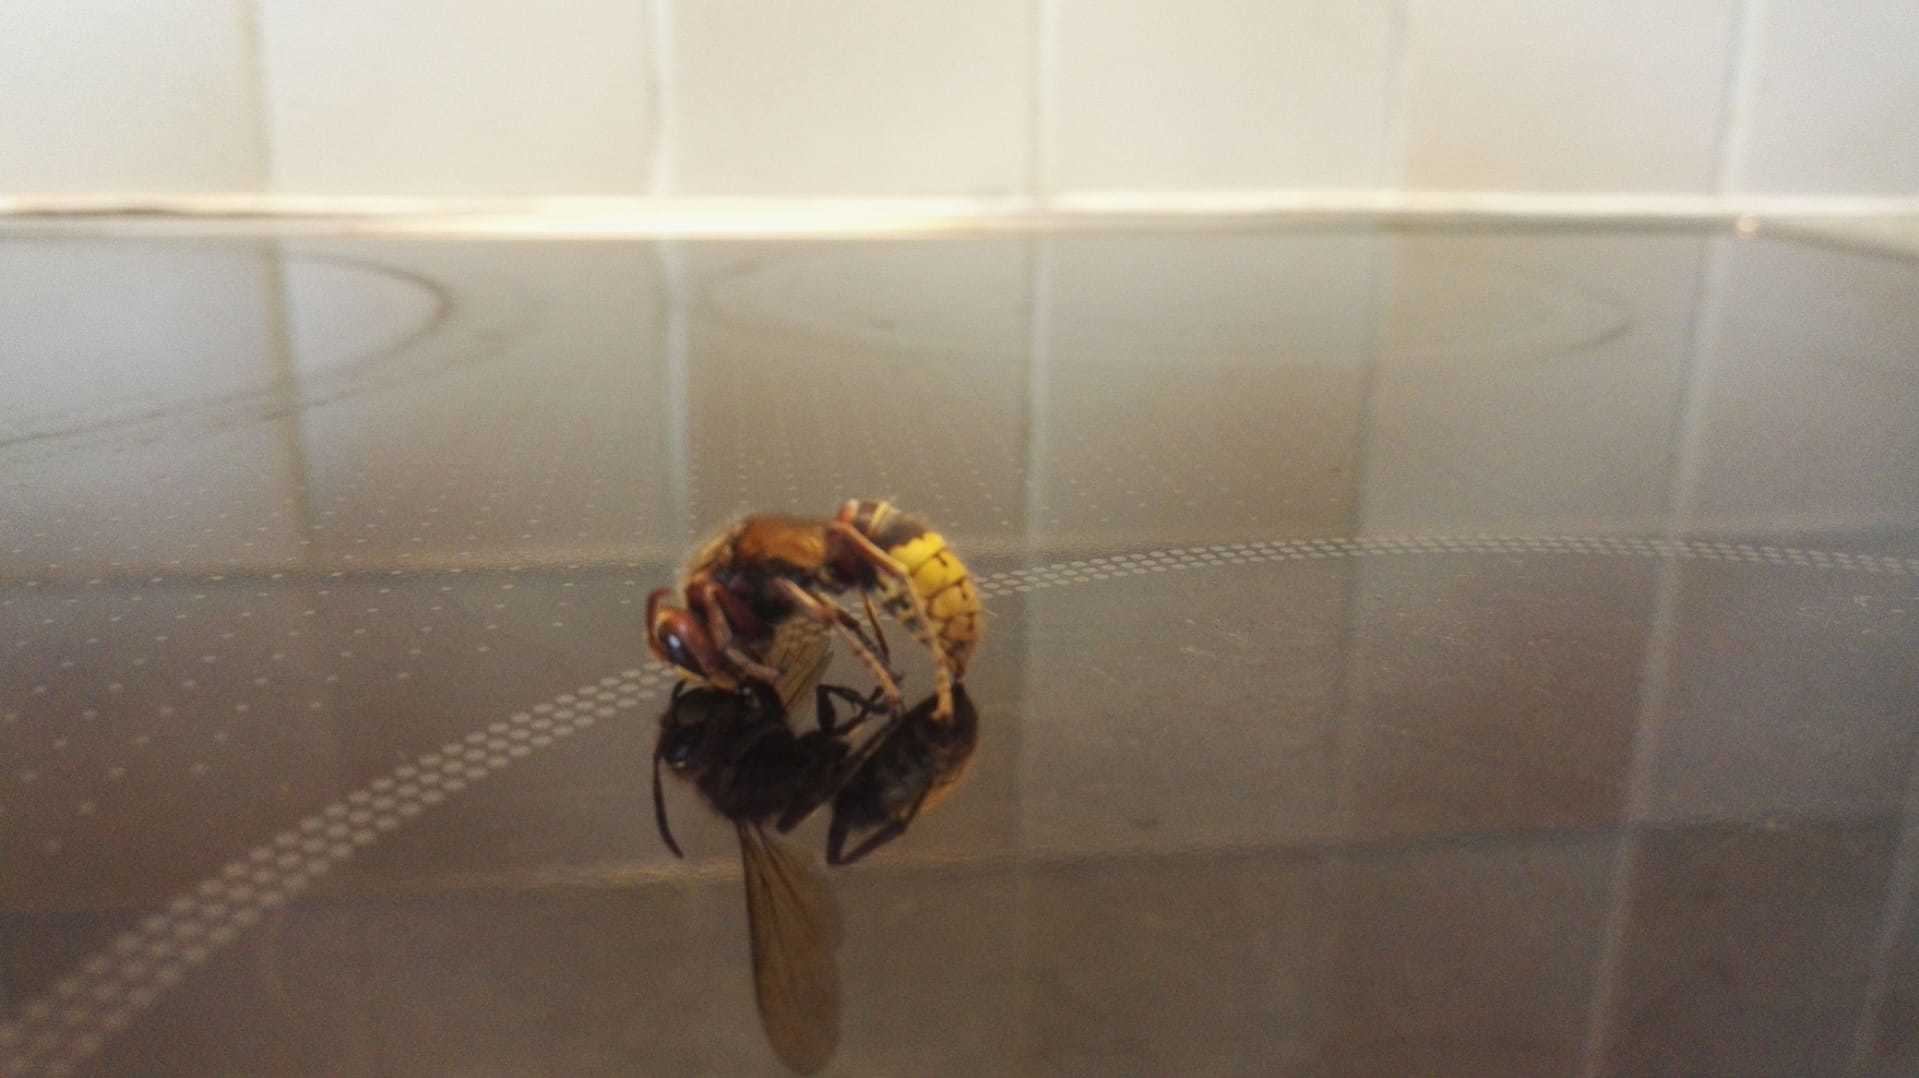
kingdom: Animalia
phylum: Arthropoda
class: Insecta
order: Hymenoptera
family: Vespidae
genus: Vespa
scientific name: Vespa crabro
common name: Hornet
